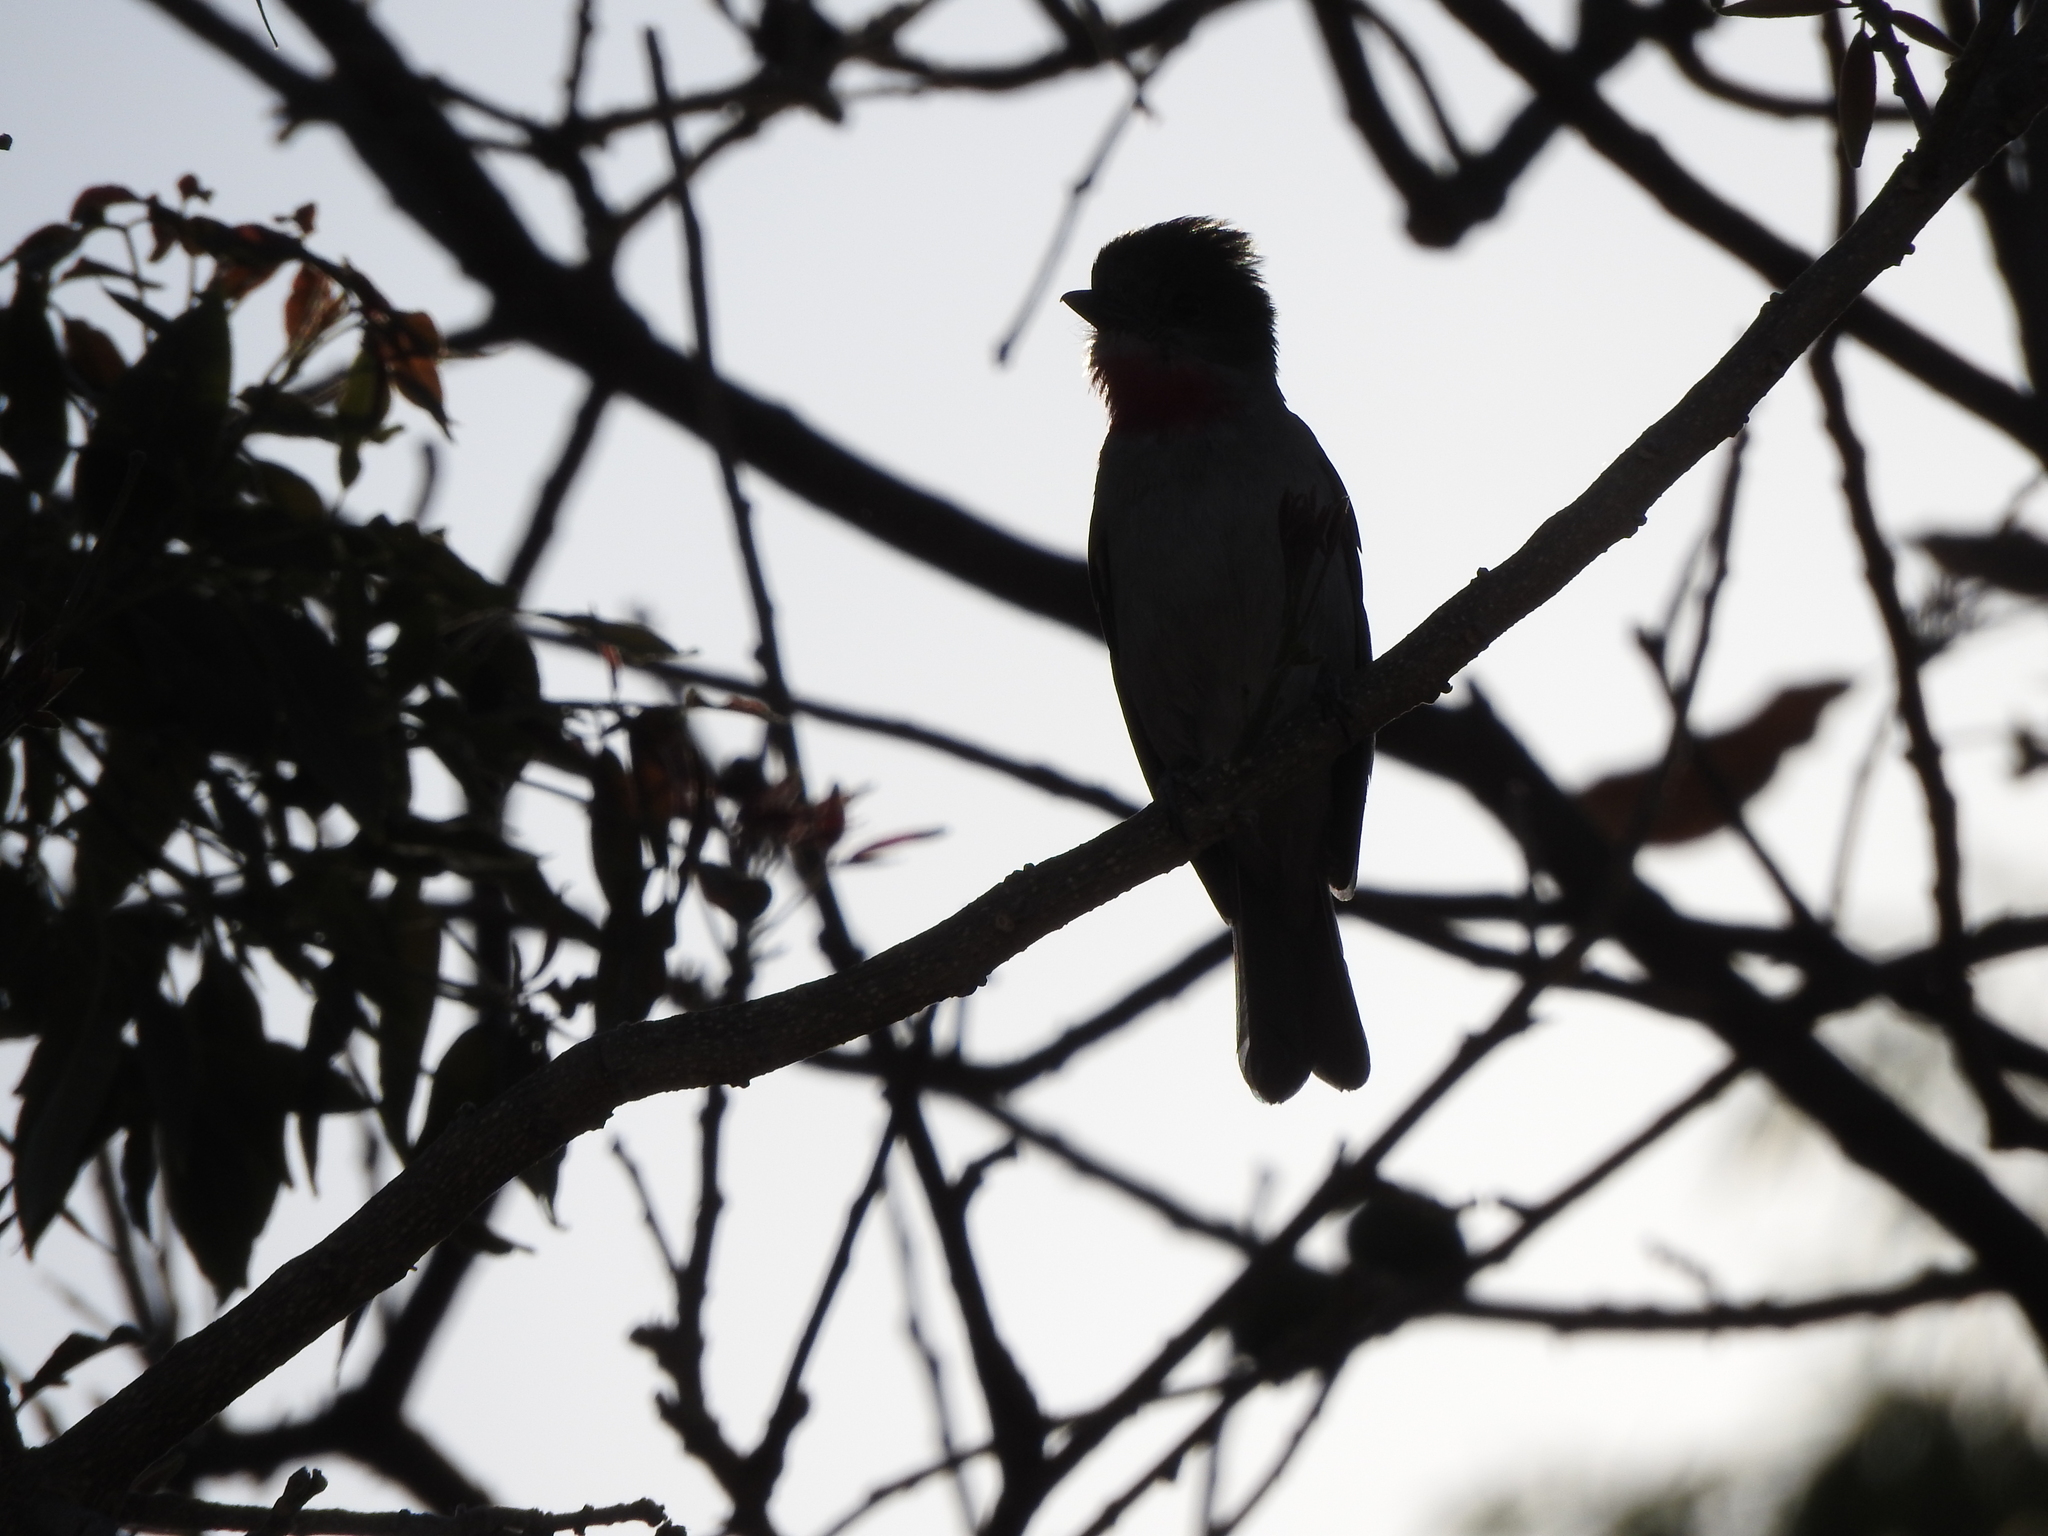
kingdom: Animalia
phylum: Chordata
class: Aves
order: Passeriformes
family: Cotingidae
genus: Pachyramphus
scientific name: Pachyramphus aglaiae
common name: Rose-throated becard
